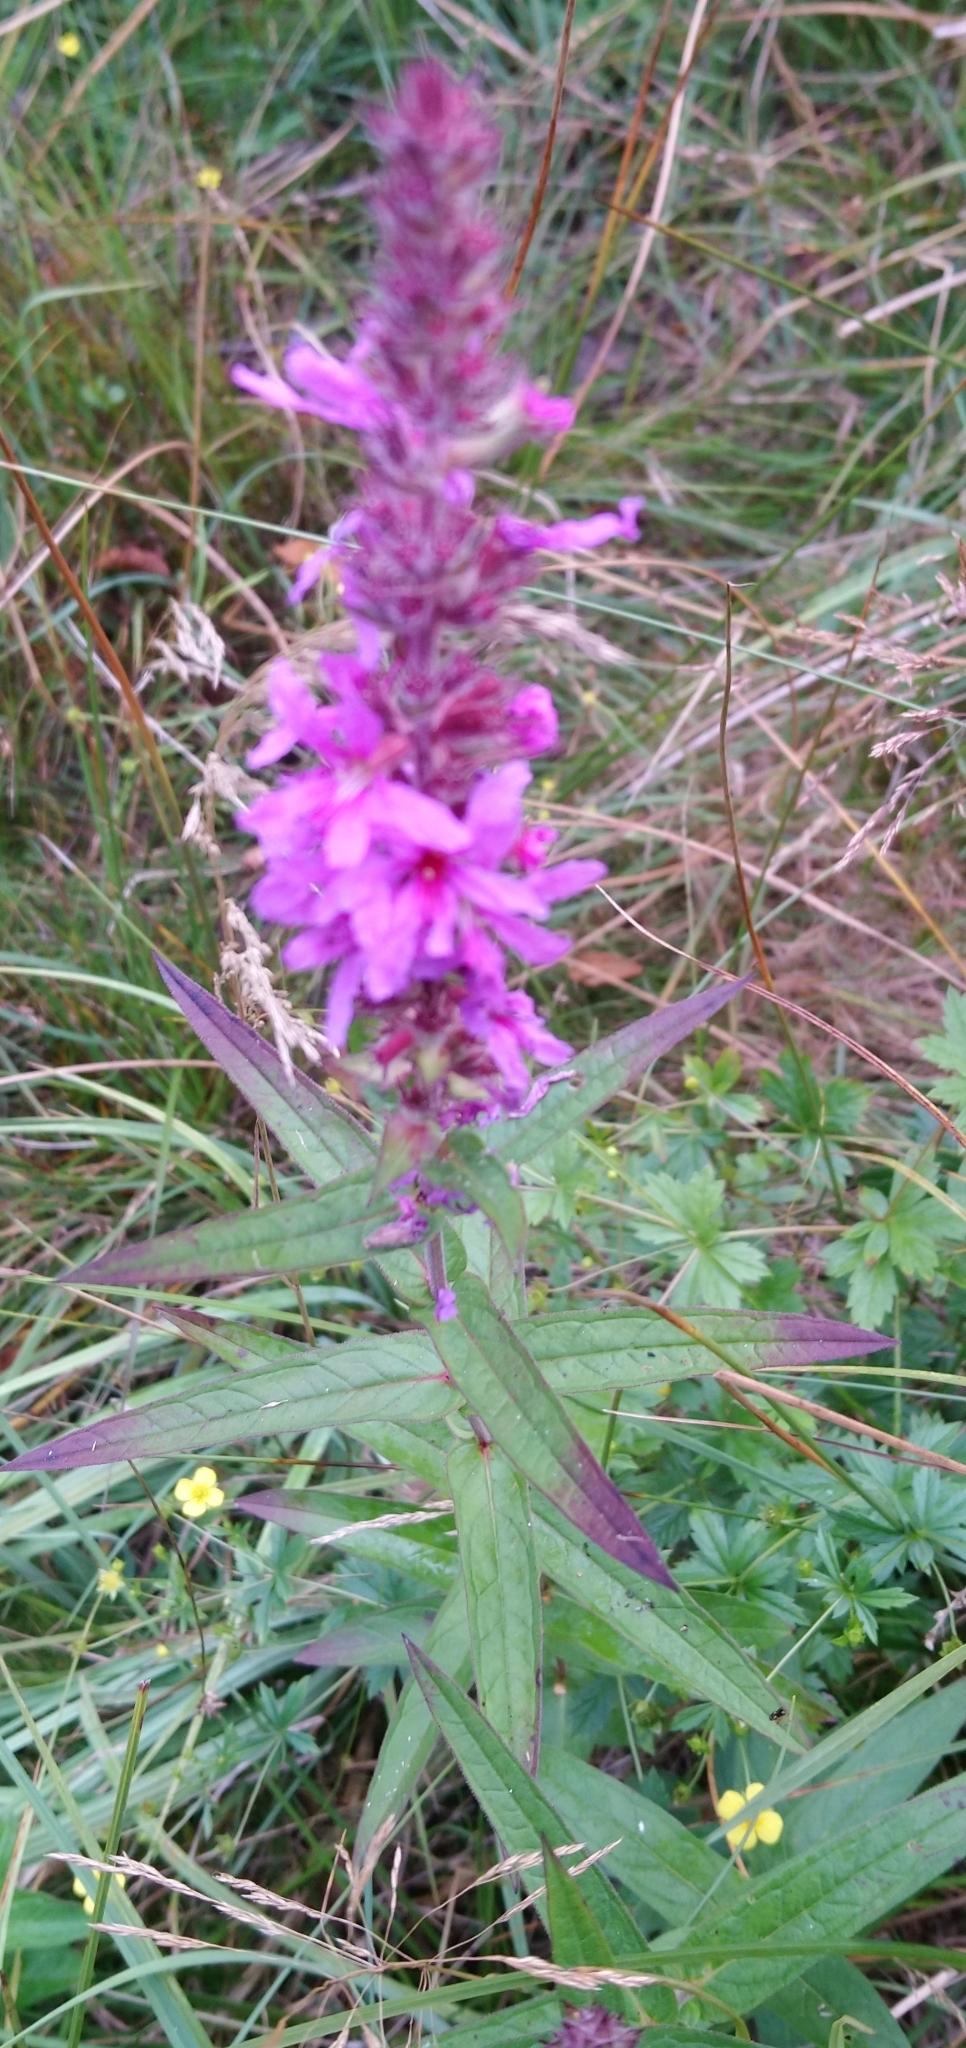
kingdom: Plantae
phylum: Tracheophyta
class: Magnoliopsida
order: Myrtales
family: Lythraceae
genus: Lythrum
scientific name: Lythrum salicaria
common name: Purple loosestrife
